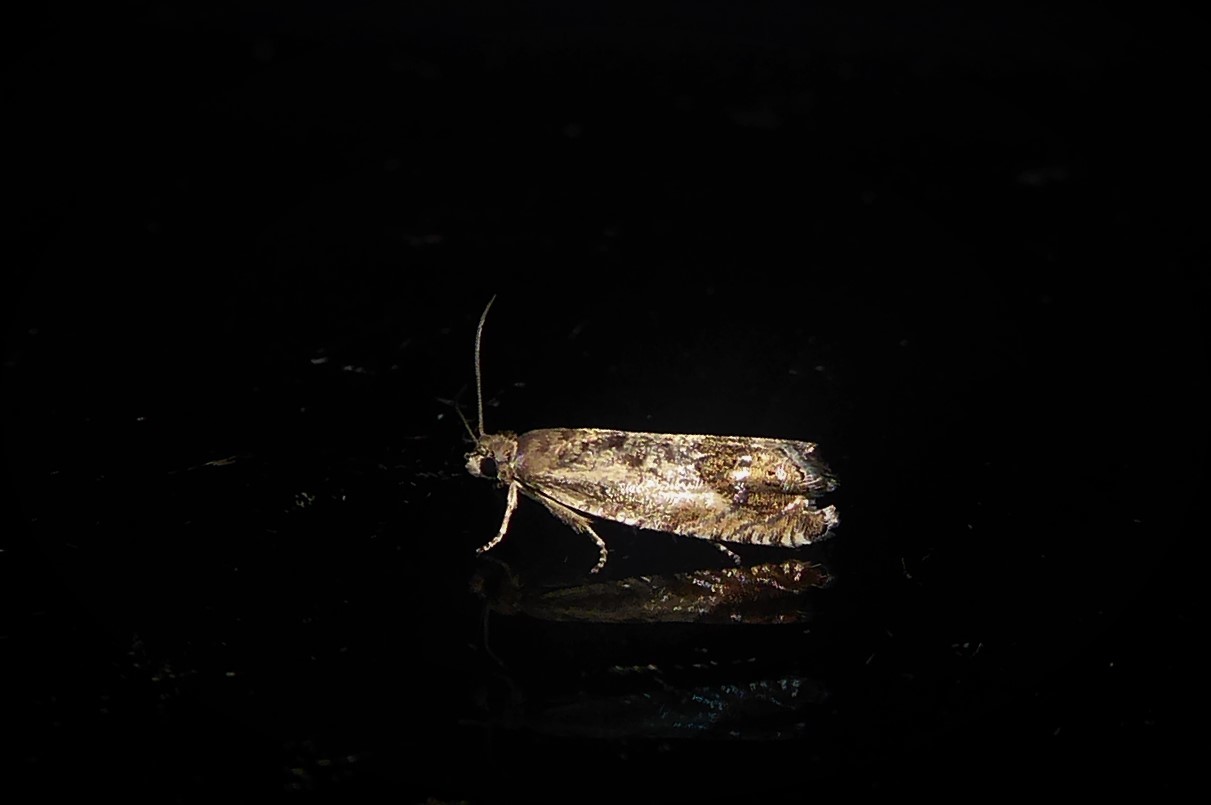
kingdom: Animalia
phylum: Arthropoda
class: Insecta
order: Lepidoptera
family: Tortricidae
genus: Cydia
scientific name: Cydia succedana
